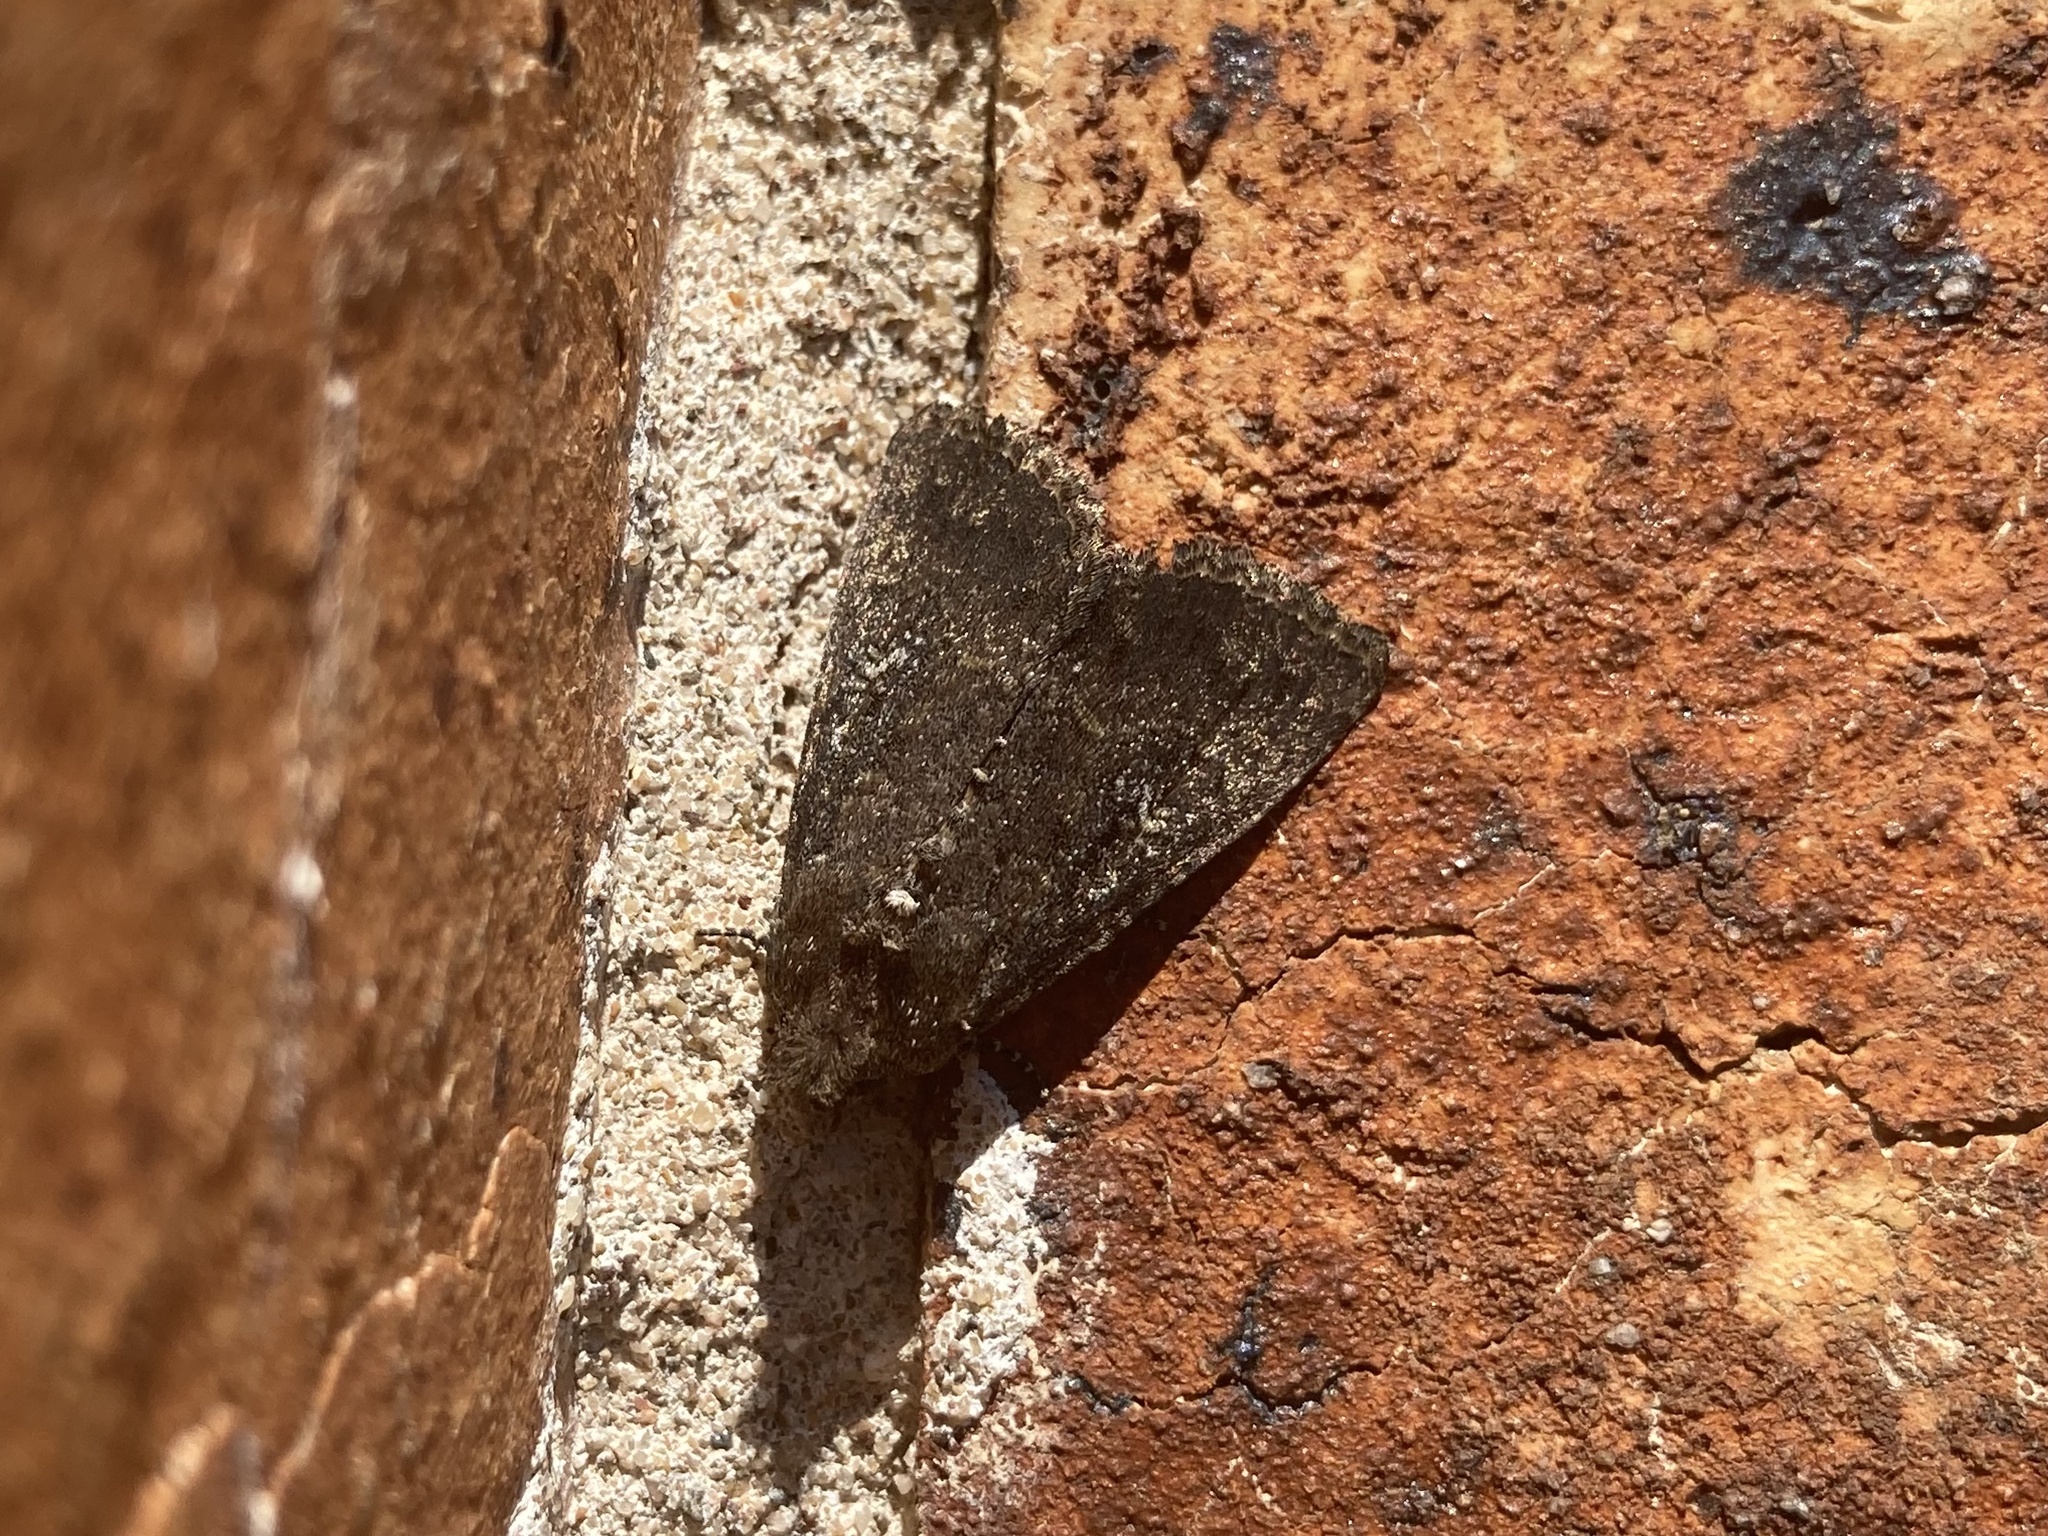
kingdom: Animalia
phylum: Arthropoda
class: Insecta
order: Lepidoptera
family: Noctuidae
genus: Condica
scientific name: Condica illecta
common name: Cutworm
